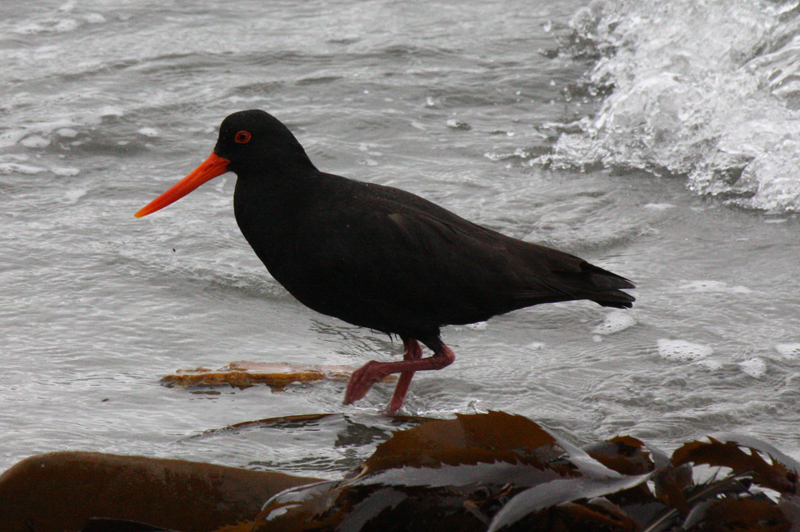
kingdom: Animalia
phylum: Chordata
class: Aves
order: Charadriiformes
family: Haematopodidae
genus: Haematopus
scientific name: Haematopus unicolor
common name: Variable oystercatcher
